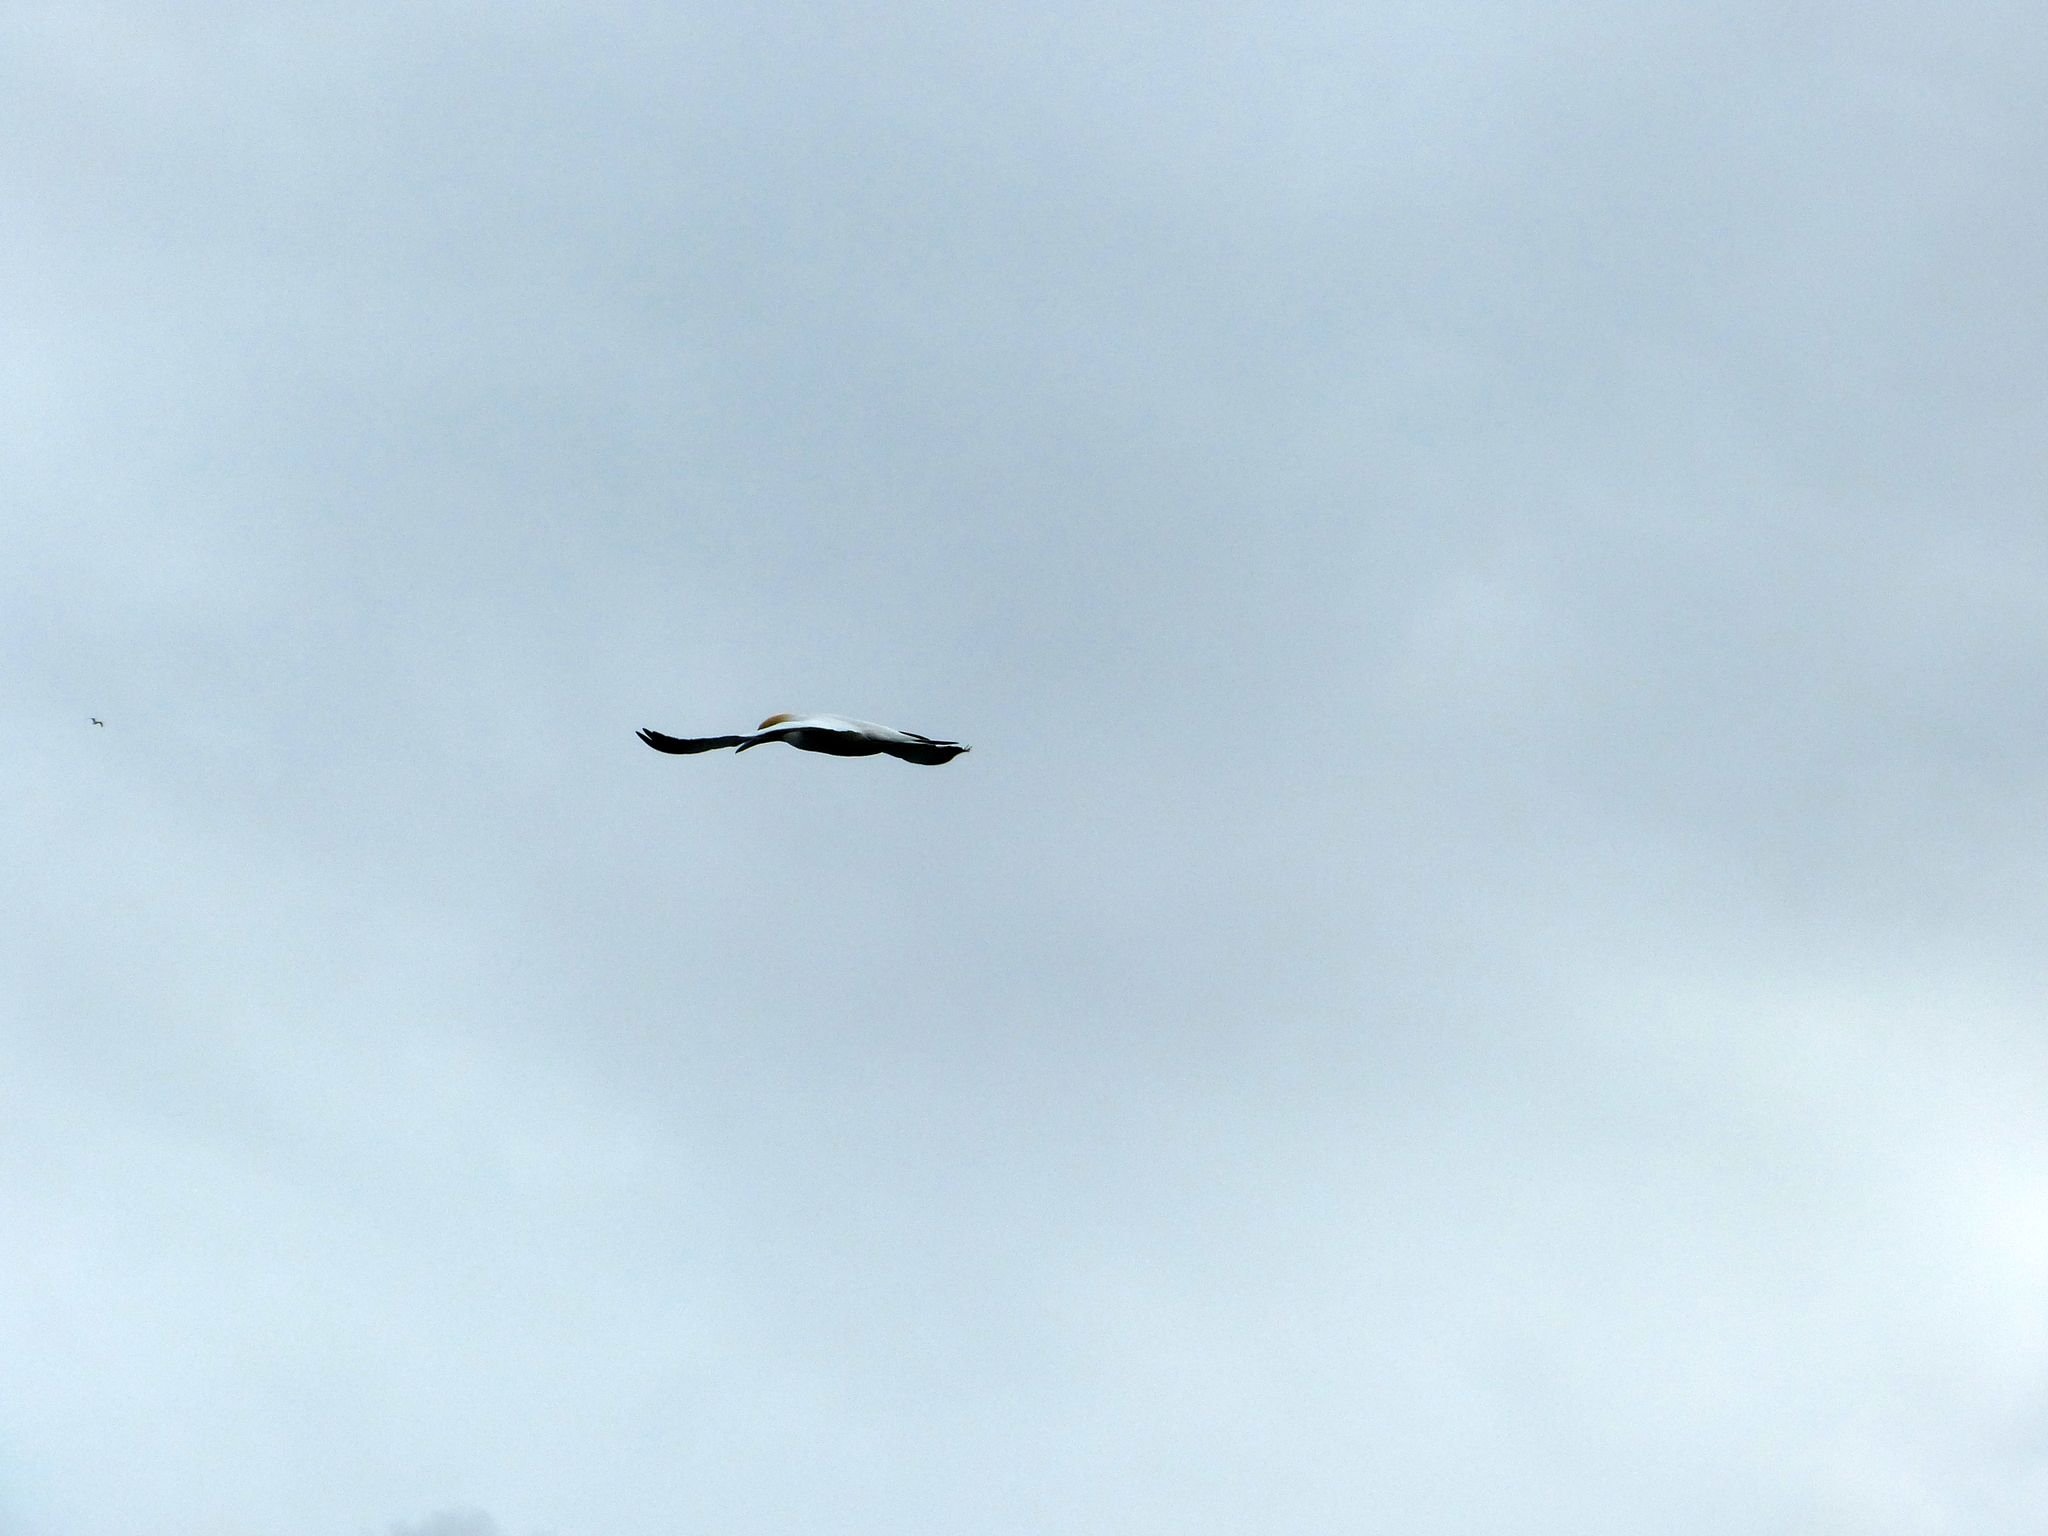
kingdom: Animalia
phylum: Chordata
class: Aves
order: Suliformes
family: Sulidae
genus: Morus
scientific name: Morus serrator
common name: Australasian gannet
